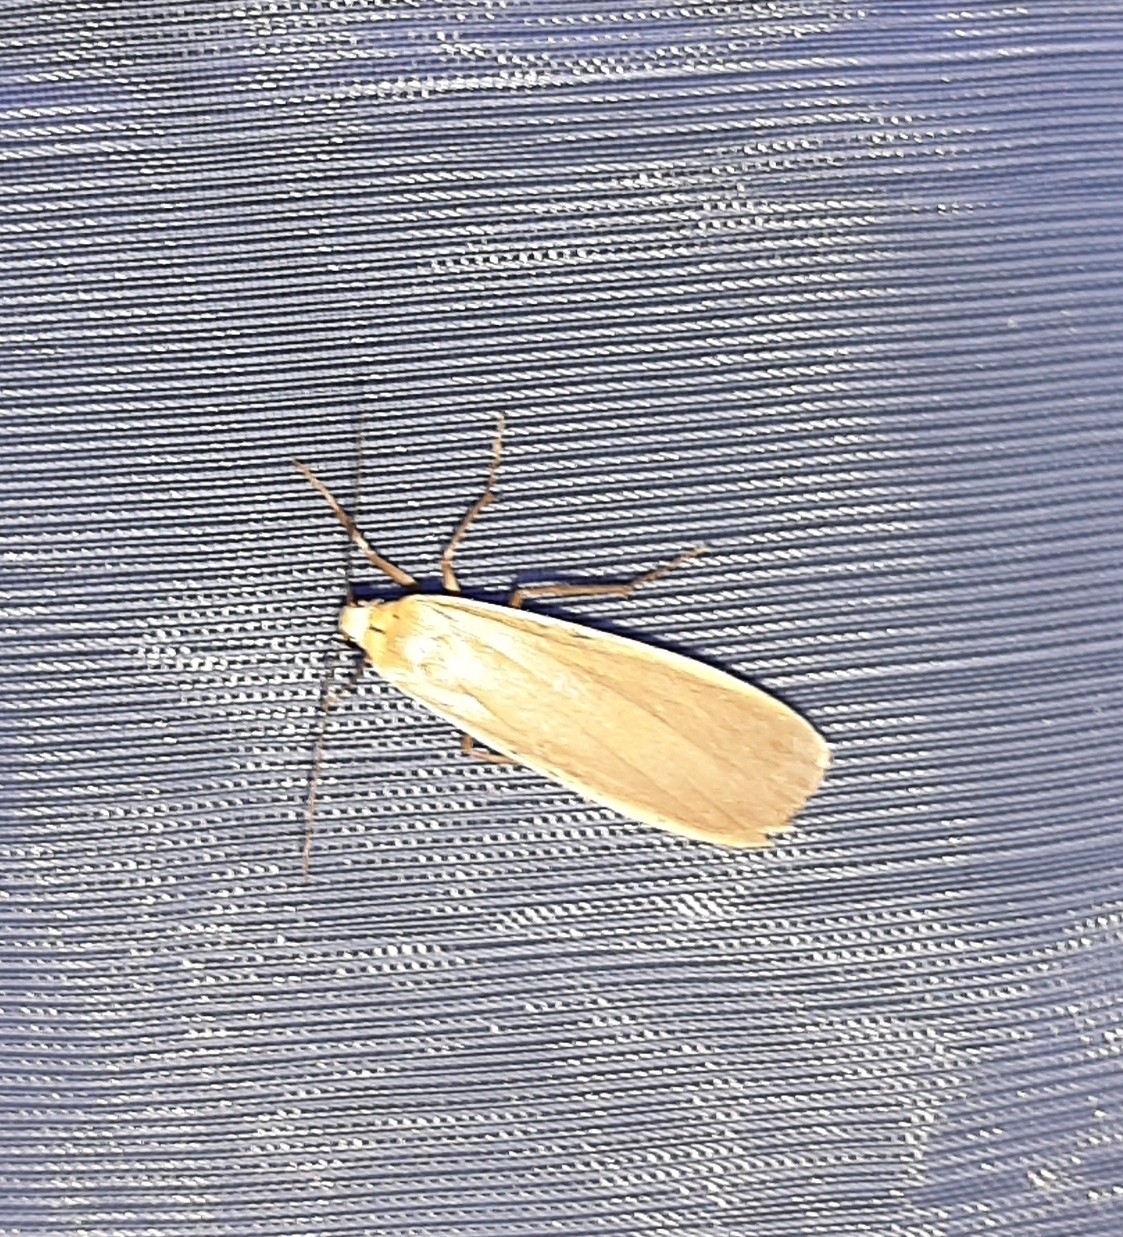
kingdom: Animalia
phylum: Arthropoda
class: Insecta
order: Lepidoptera
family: Erebidae
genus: Katha
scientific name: Katha depressa
